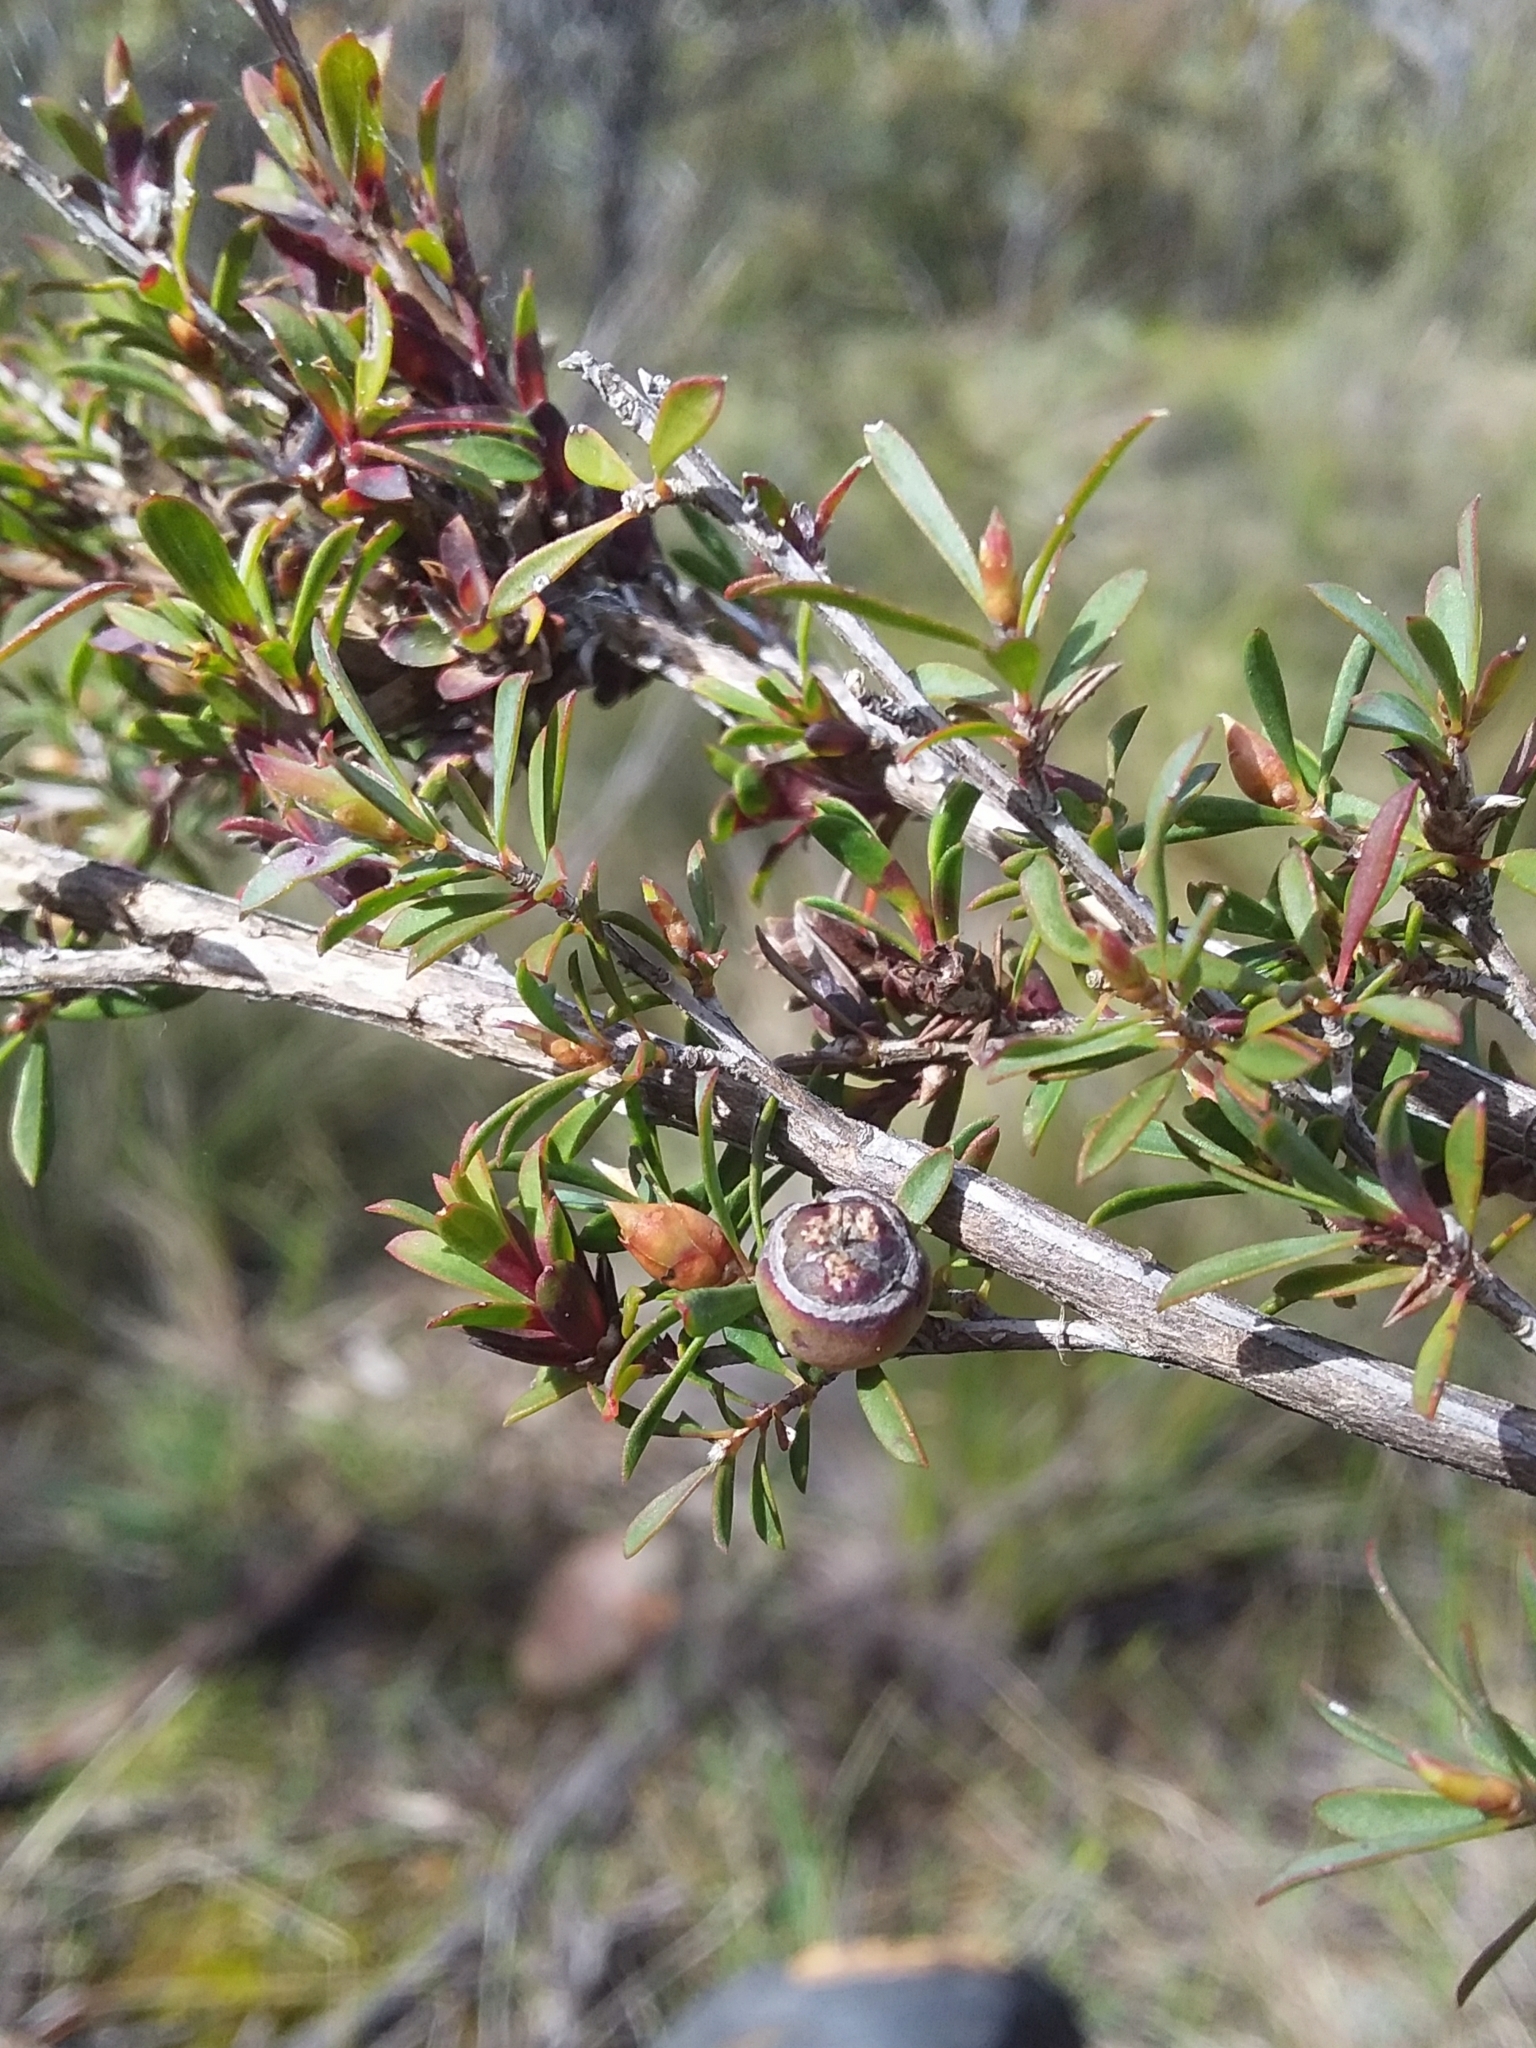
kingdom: Plantae
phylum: Tracheophyta
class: Magnoliopsida
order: Myrtales
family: Myrtaceae
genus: Leptospermum
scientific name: Leptospermum myrsinoides
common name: Heath teatree
